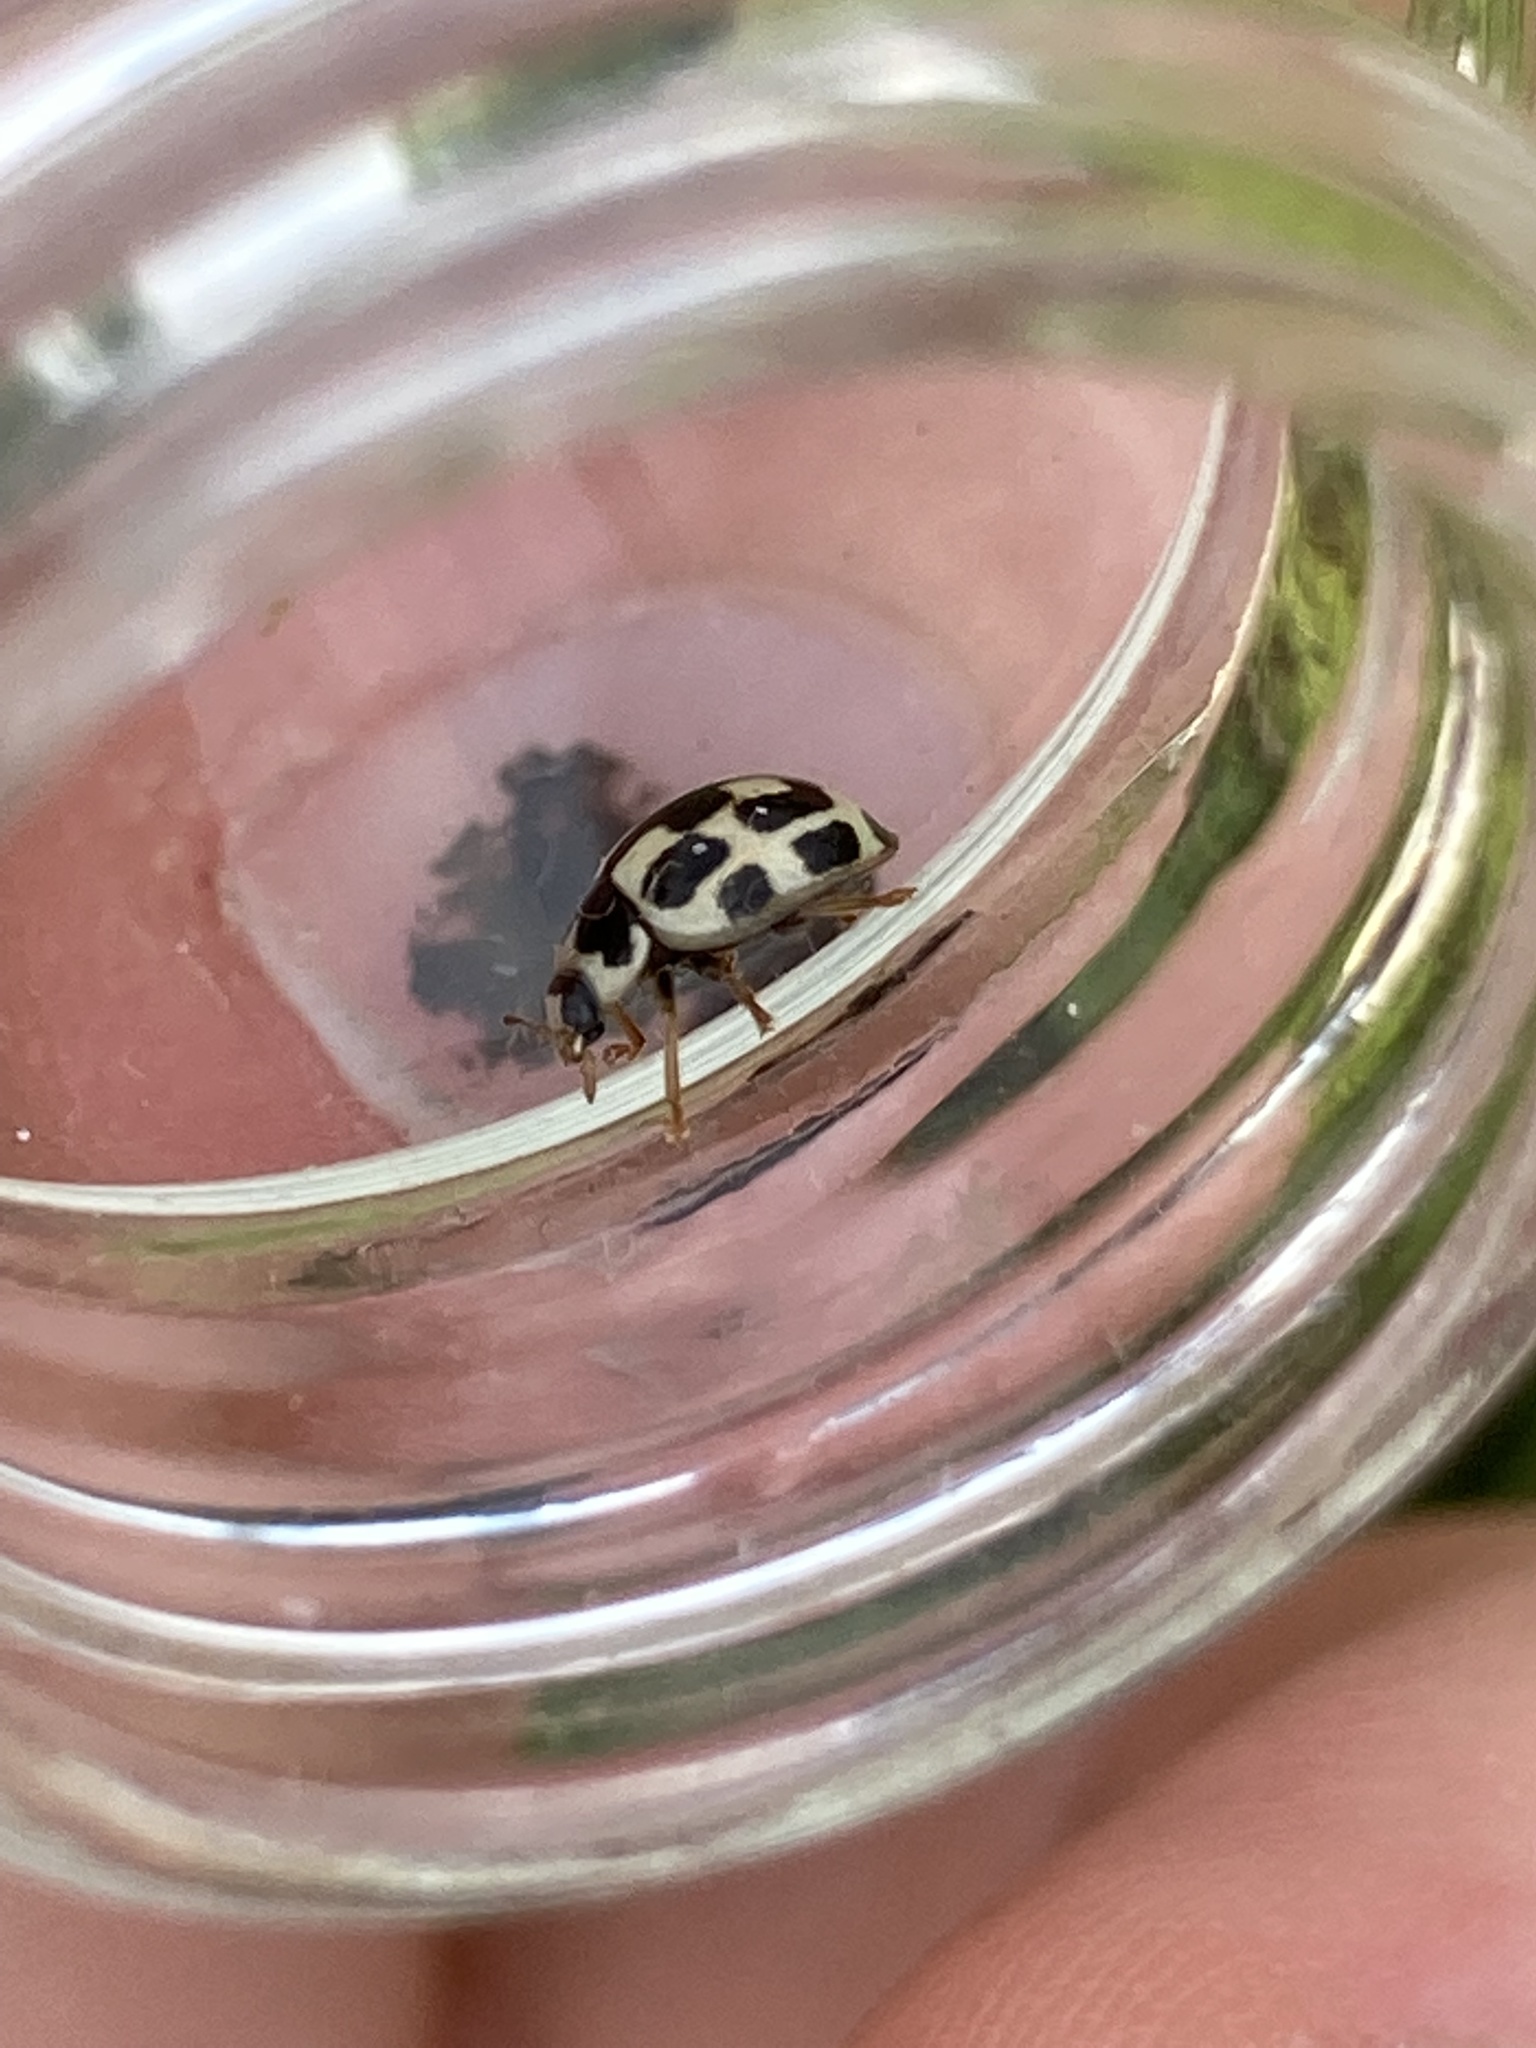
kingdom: Animalia
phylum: Arthropoda
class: Insecta
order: Coleoptera
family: Coccinellidae
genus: Propylaea
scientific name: Propylaea quatuordecimpunctata
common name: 14-spotted ladybird beetle
